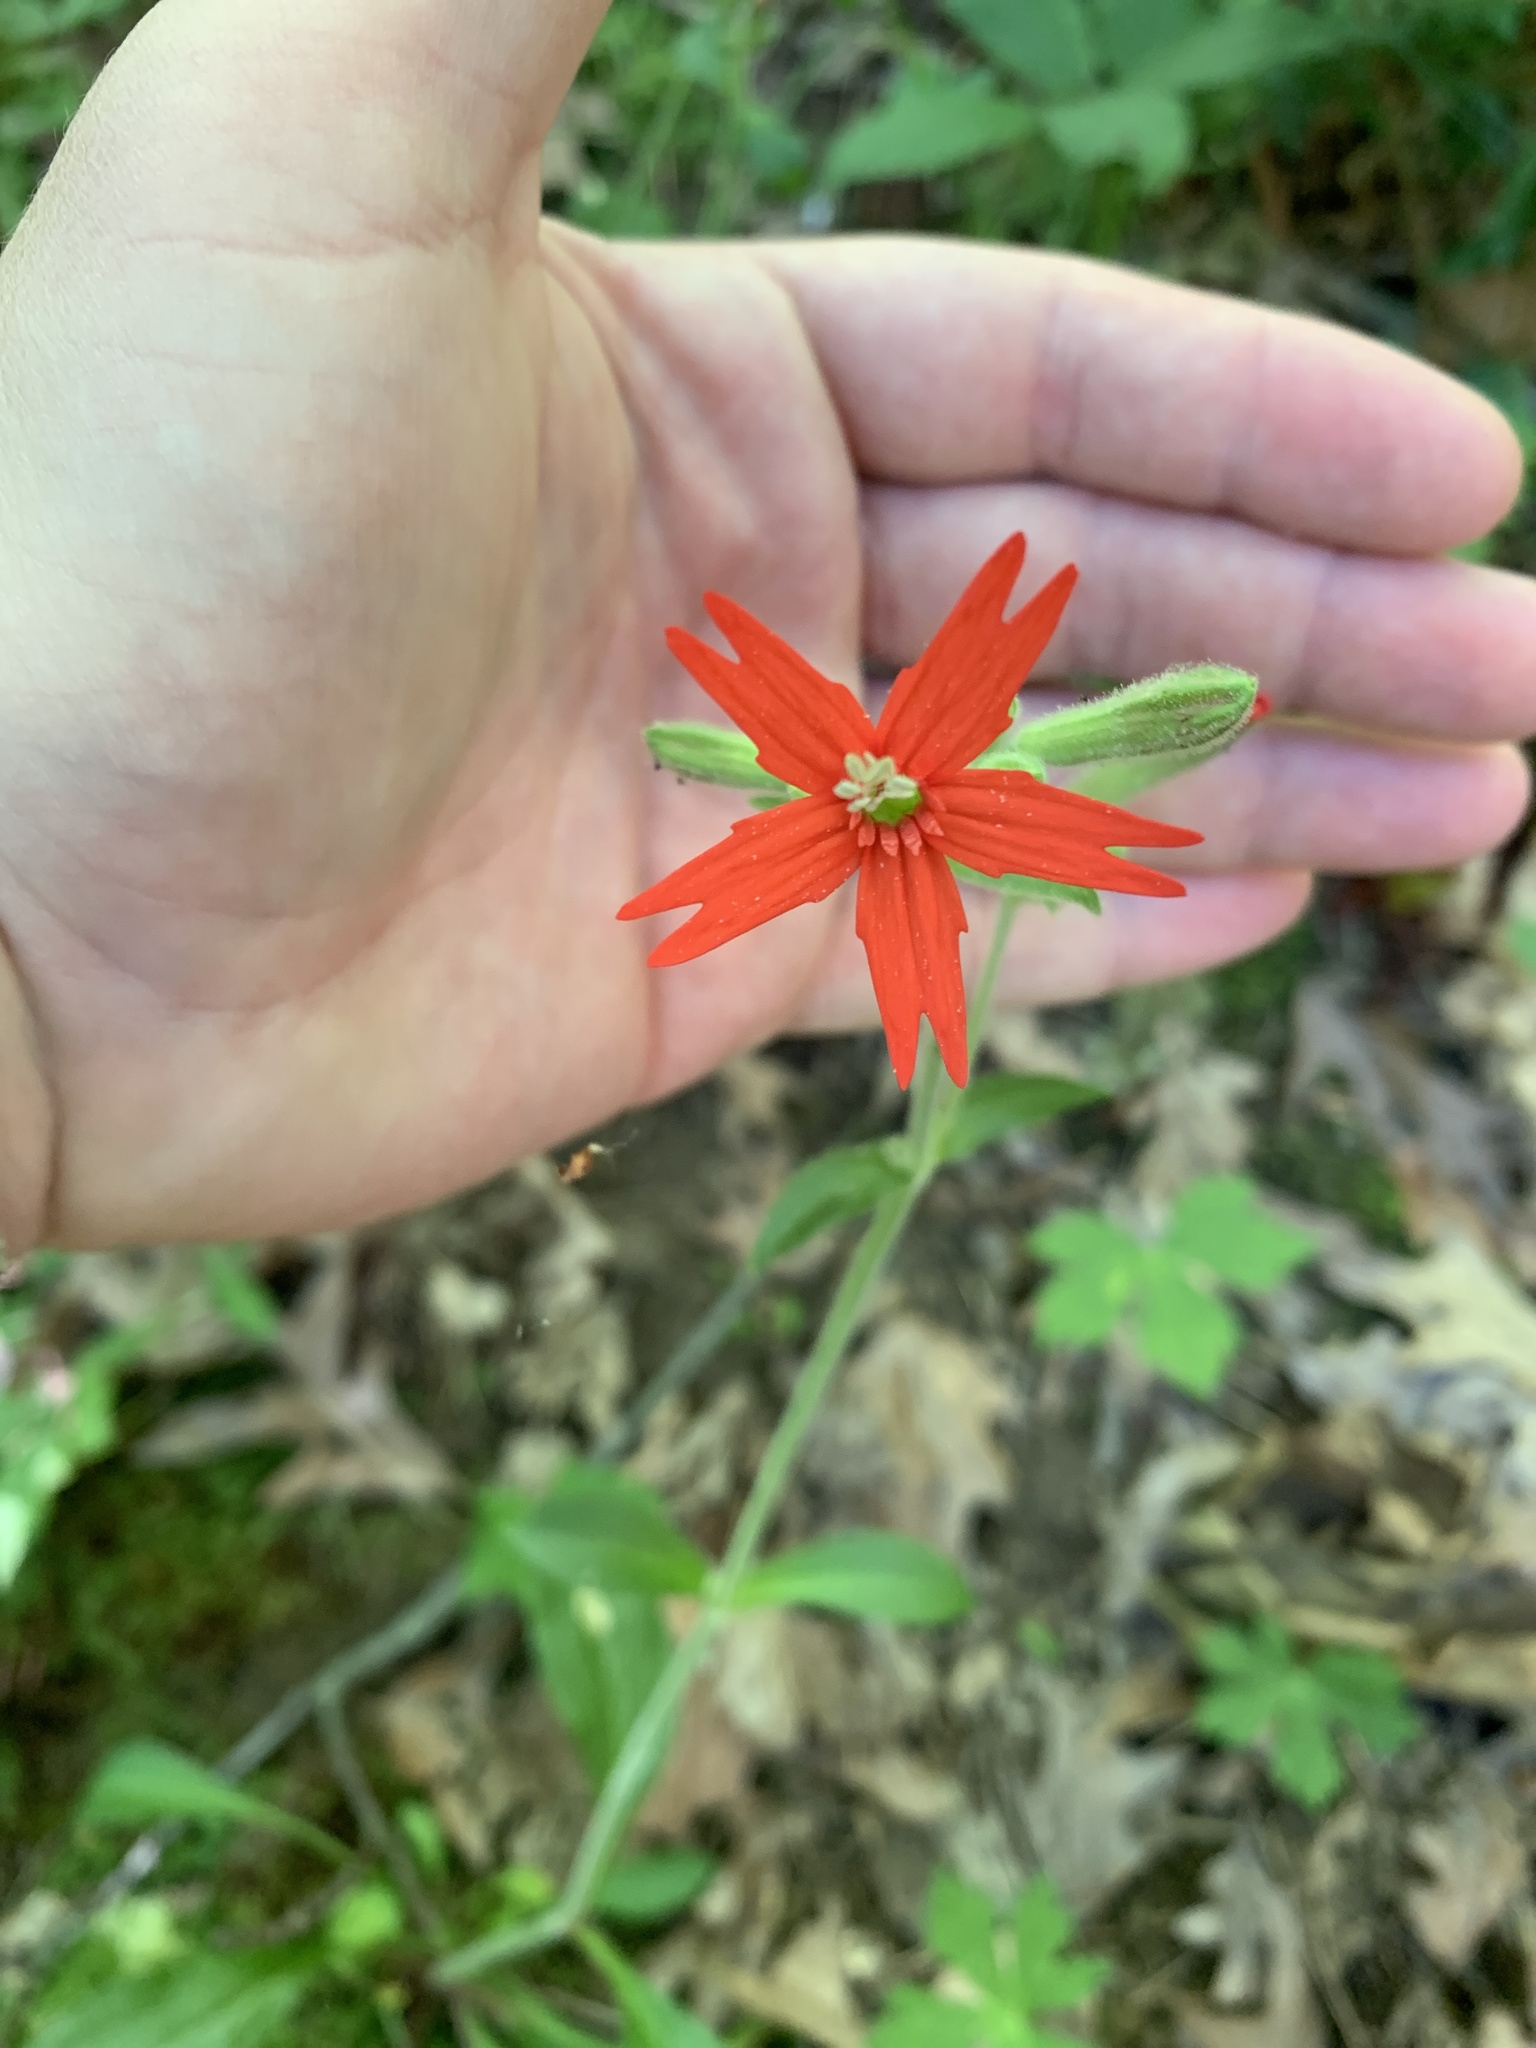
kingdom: Plantae
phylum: Tracheophyta
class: Magnoliopsida
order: Caryophyllales
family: Caryophyllaceae
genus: Silene
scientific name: Silene virginica
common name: Fire-pink
